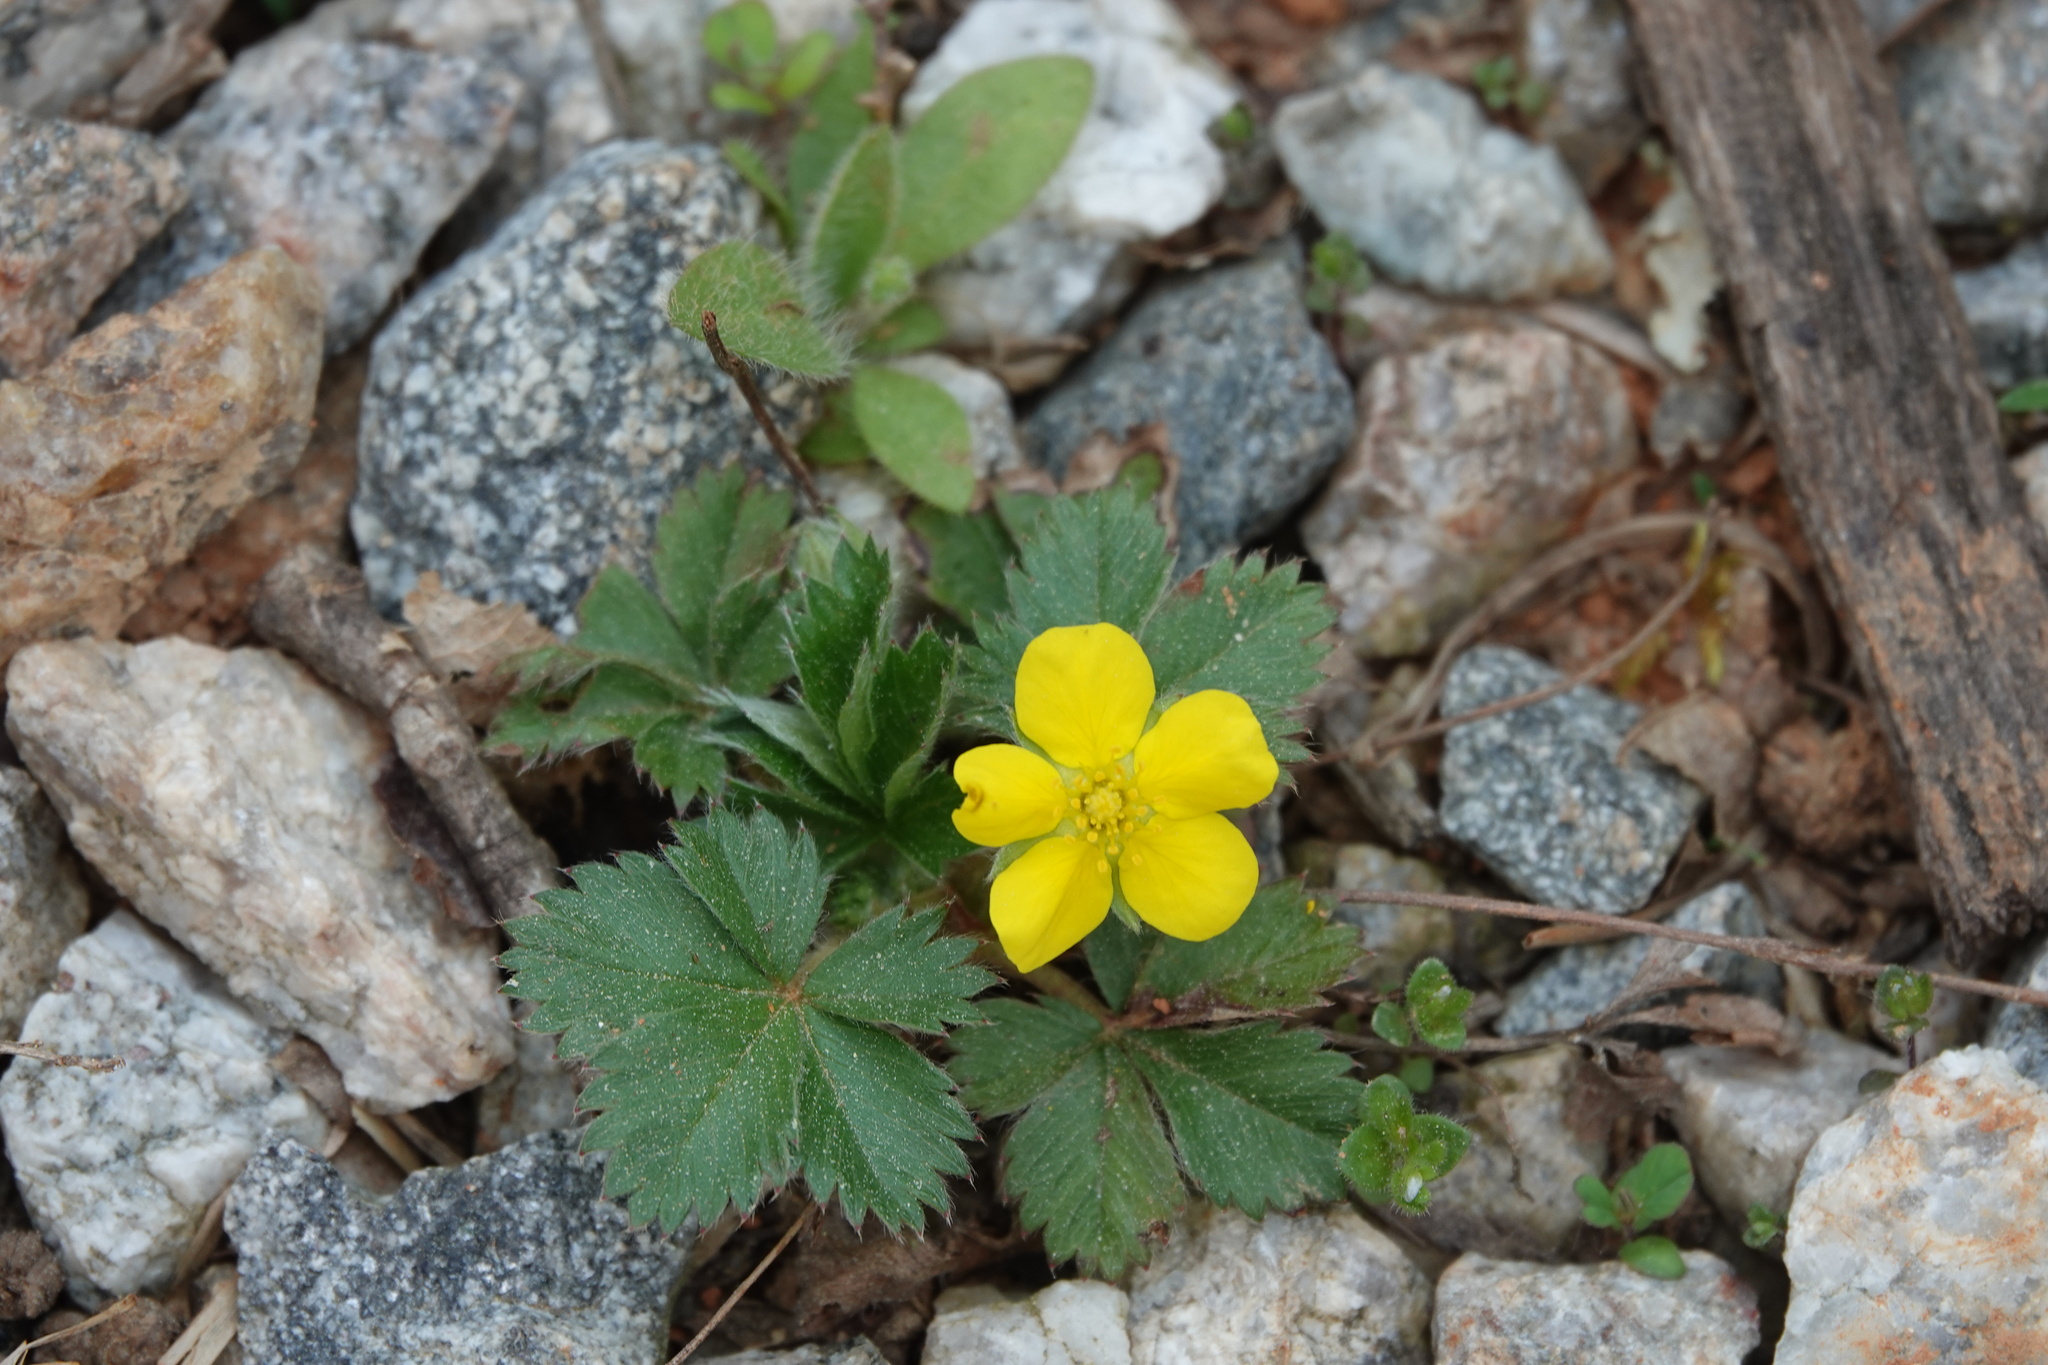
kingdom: Plantae
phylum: Tracheophyta
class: Magnoliopsida
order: Rosales
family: Rosaceae
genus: Potentilla
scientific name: Potentilla canadensis
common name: Canada cinquefoil
